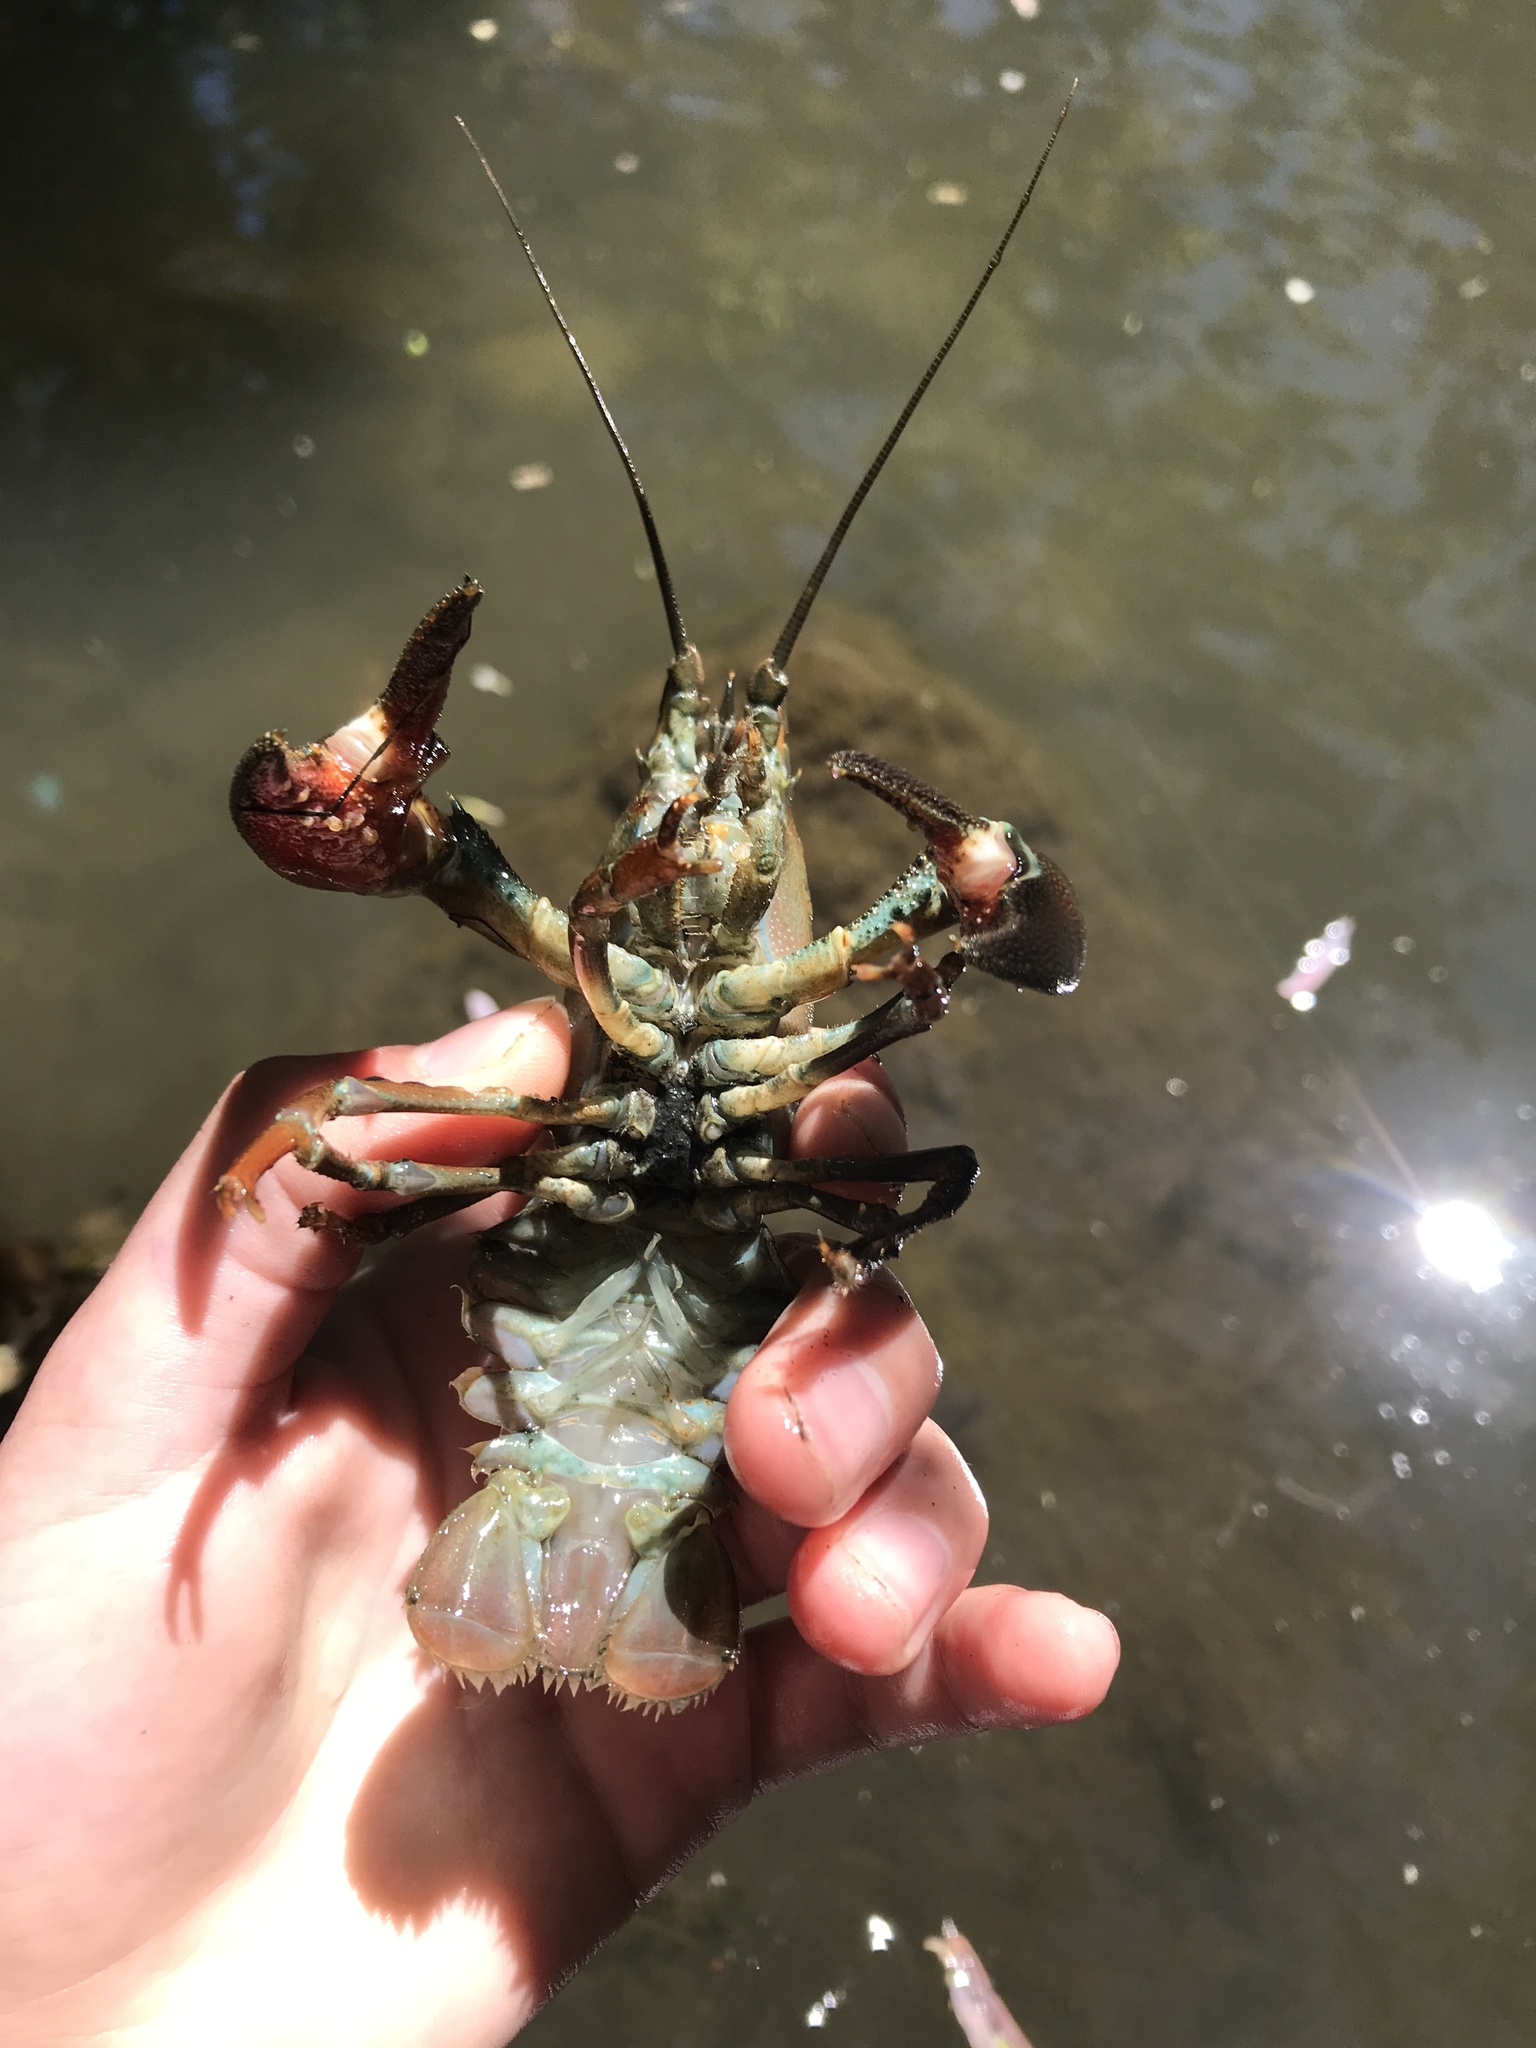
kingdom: Animalia
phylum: Arthropoda
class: Malacostraca
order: Decapoda
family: Astacidae
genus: Pacifastacus
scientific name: Pacifastacus leniusculus
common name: Signal crayfish
